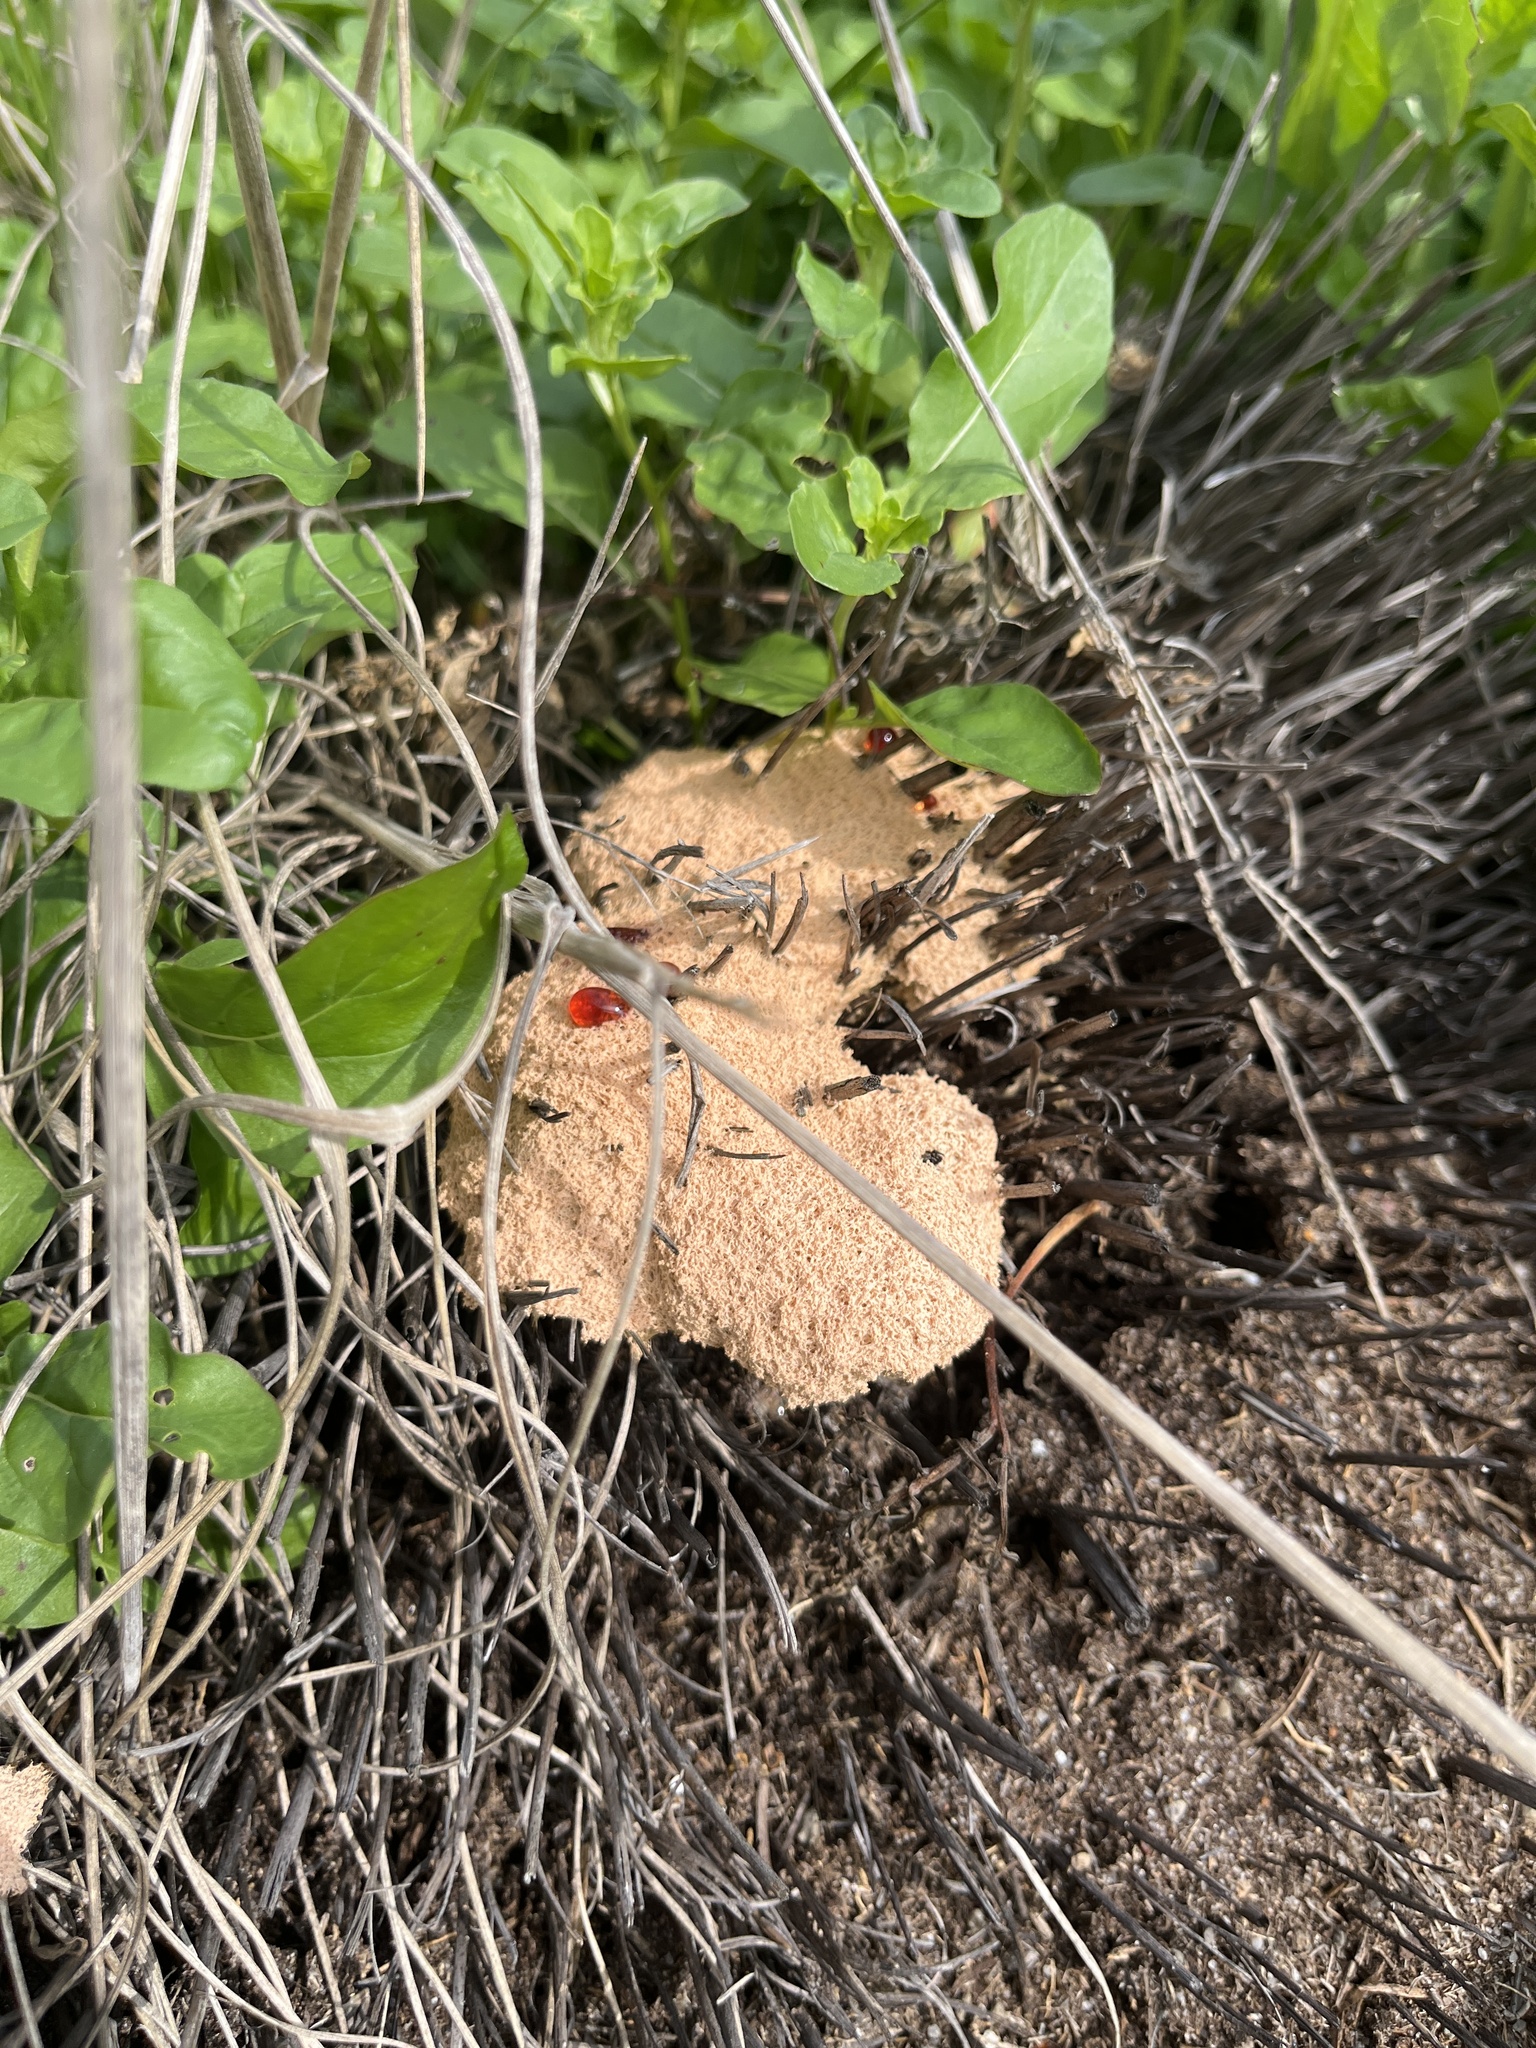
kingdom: Protozoa
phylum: Mycetozoa
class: Myxomycetes
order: Physarales
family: Physaraceae
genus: Fuligo
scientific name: Fuligo septica
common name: Dog vomit slime mold
